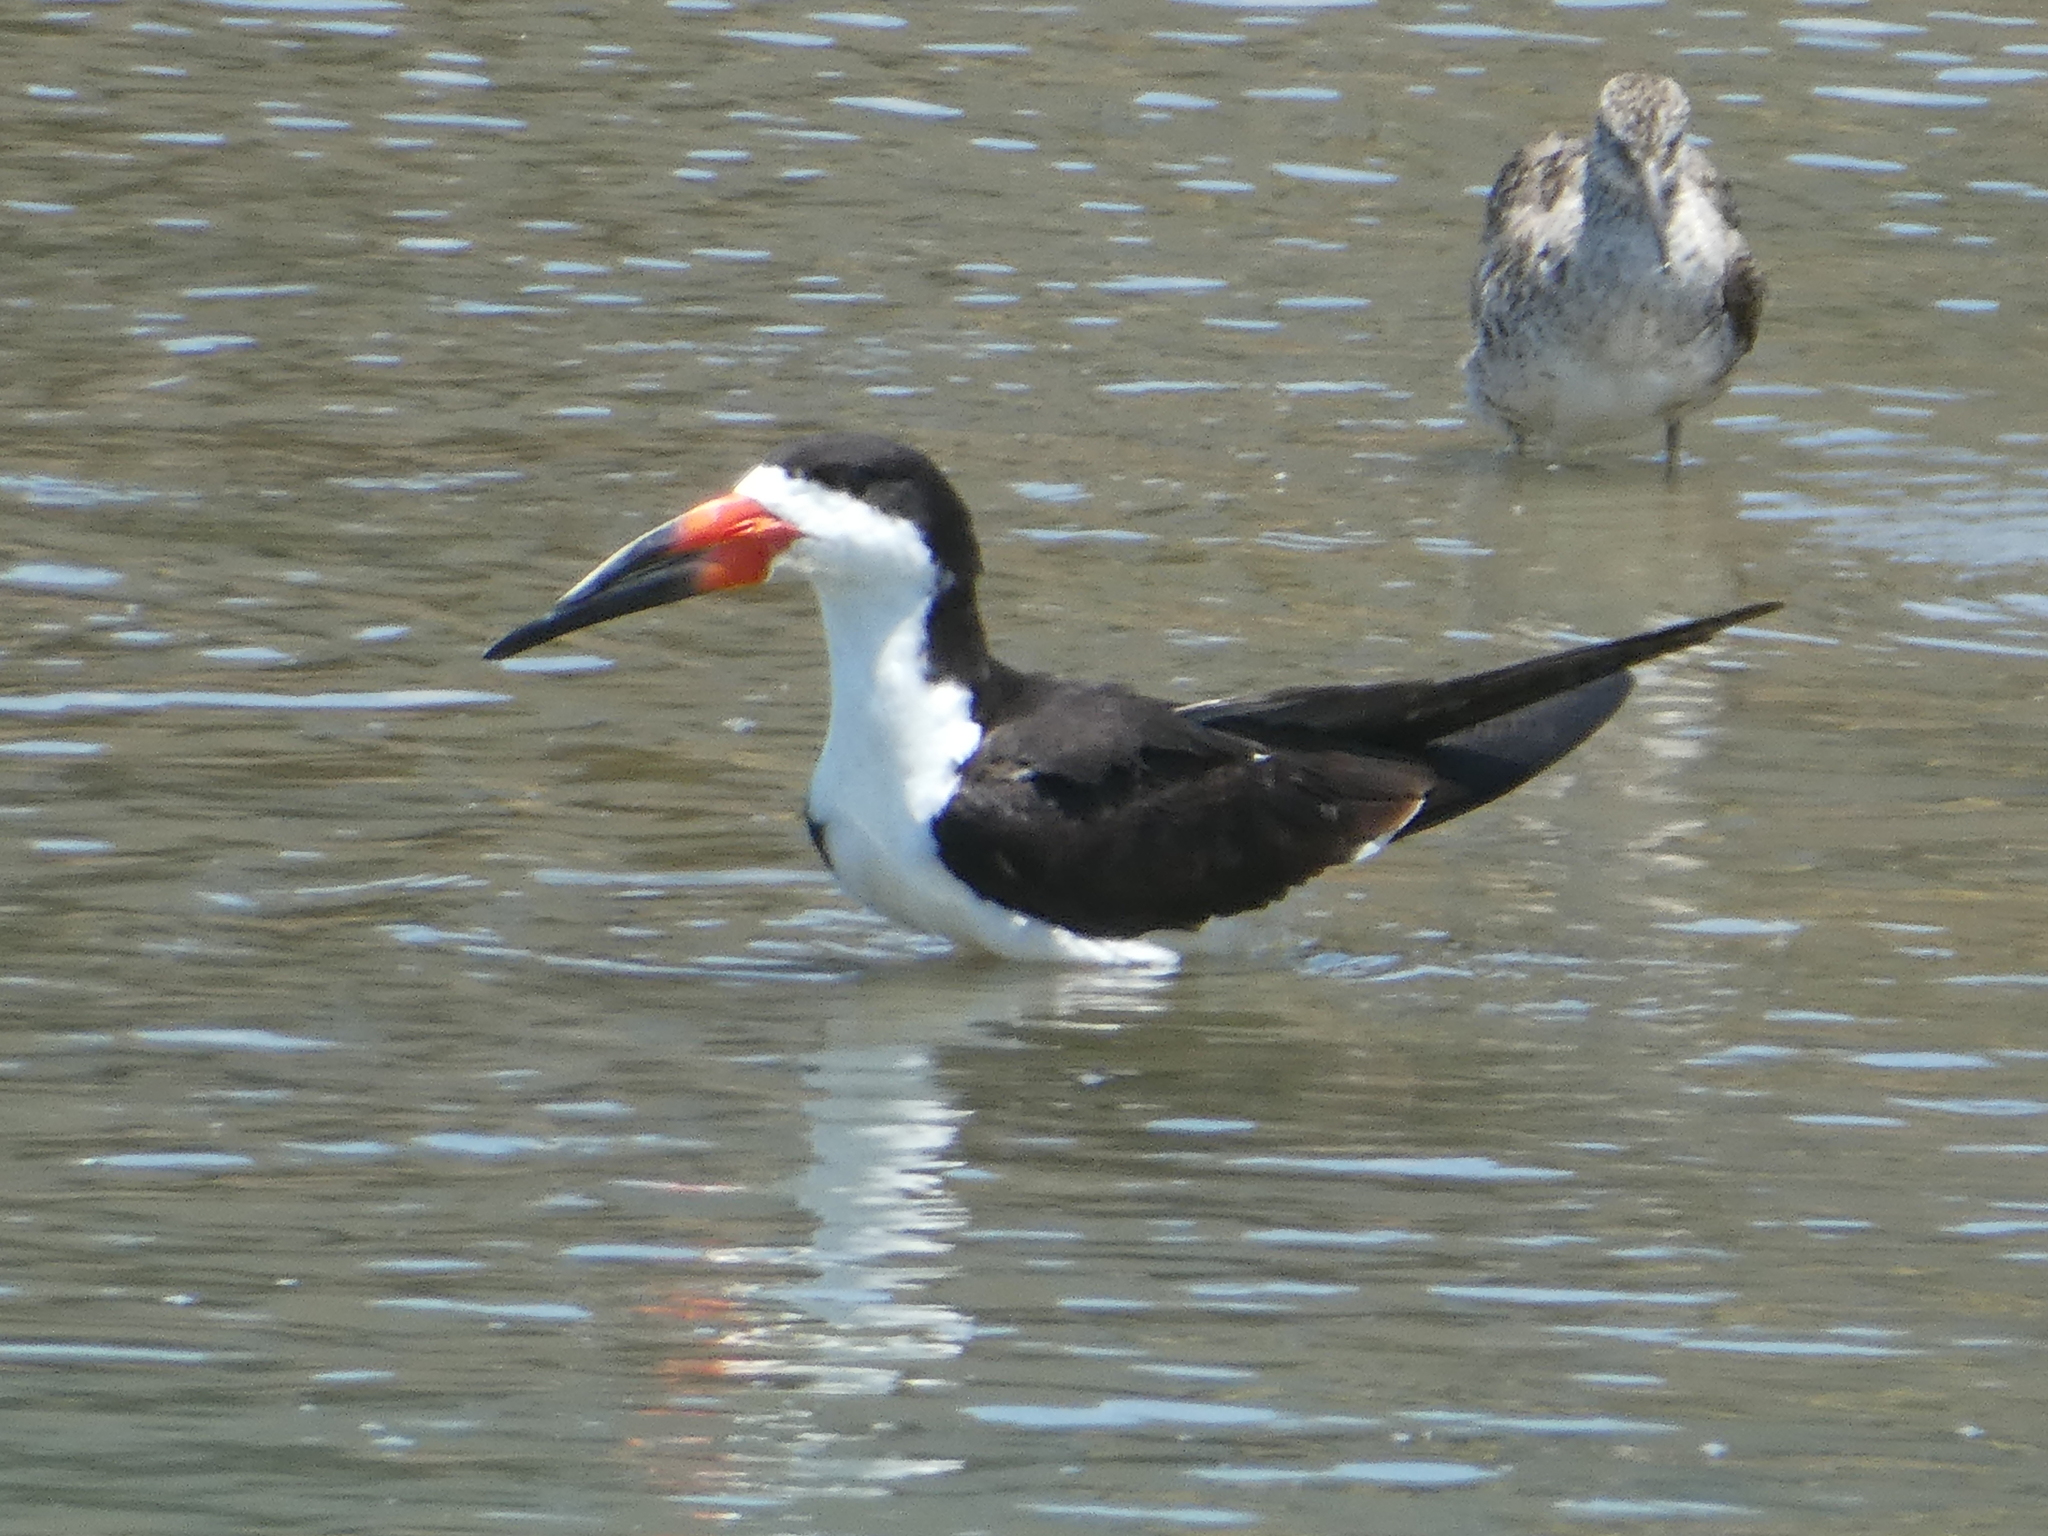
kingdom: Animalia
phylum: Chordata
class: Aves
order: Charadriiformes
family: Laridae
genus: Rynchops
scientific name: Rynchops niger
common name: Black skimmer
